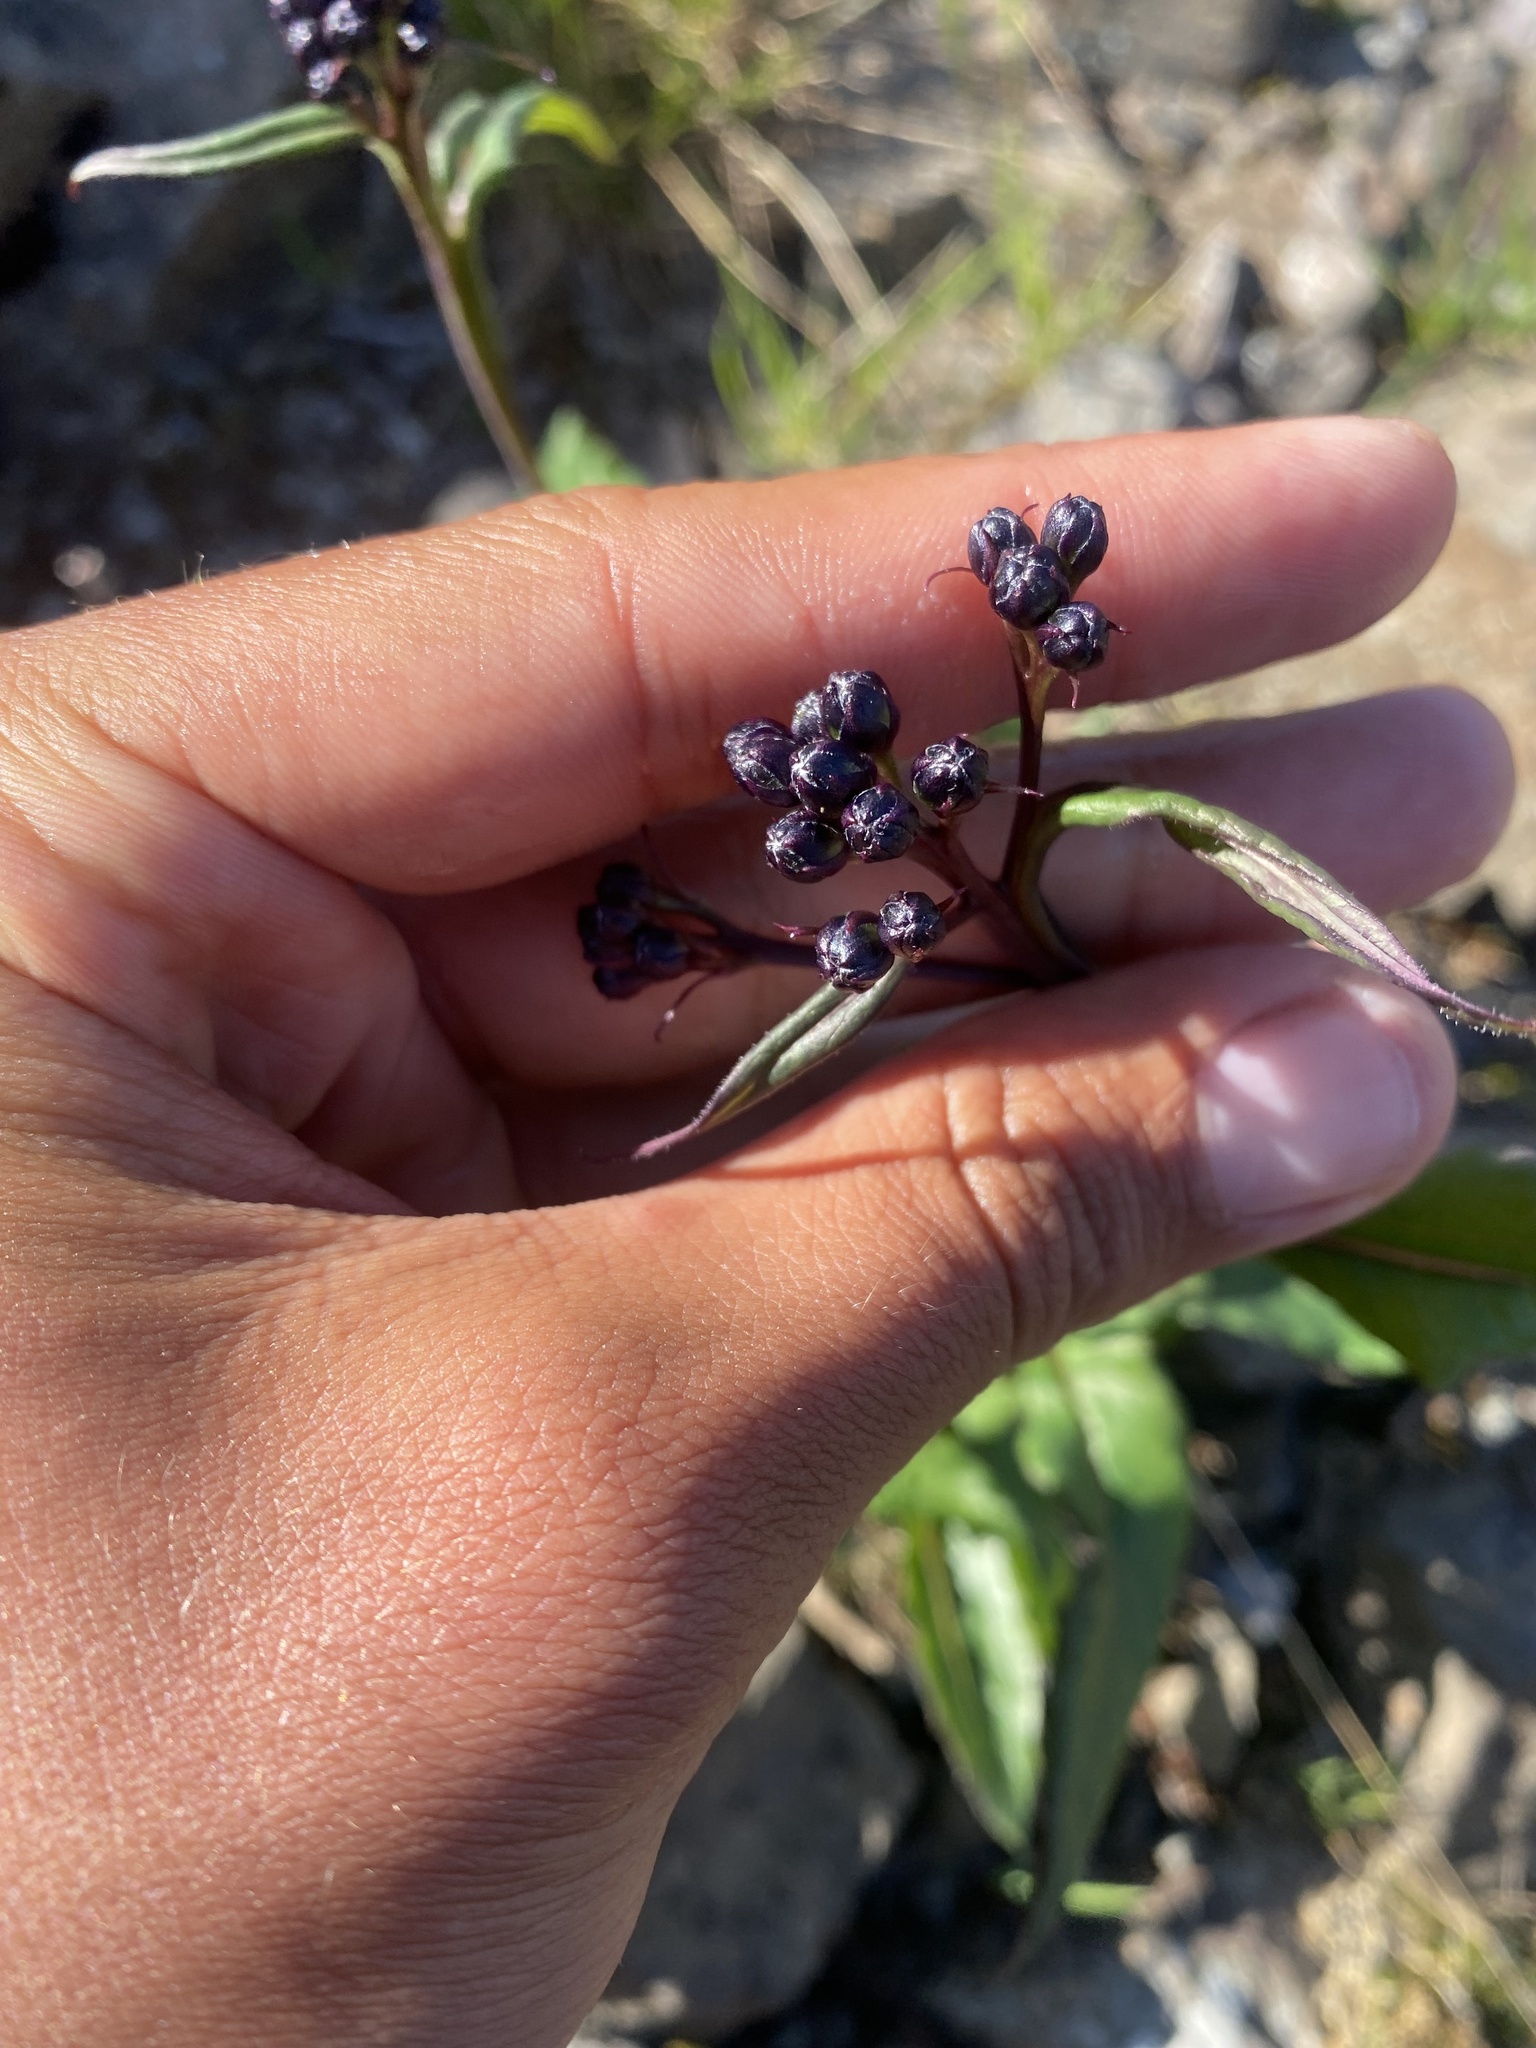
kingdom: Plantae
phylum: Tracheophyta
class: Magnoliopsida
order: Asterales
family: Asteraceae
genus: Saussurea
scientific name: Saussurea parviflora
